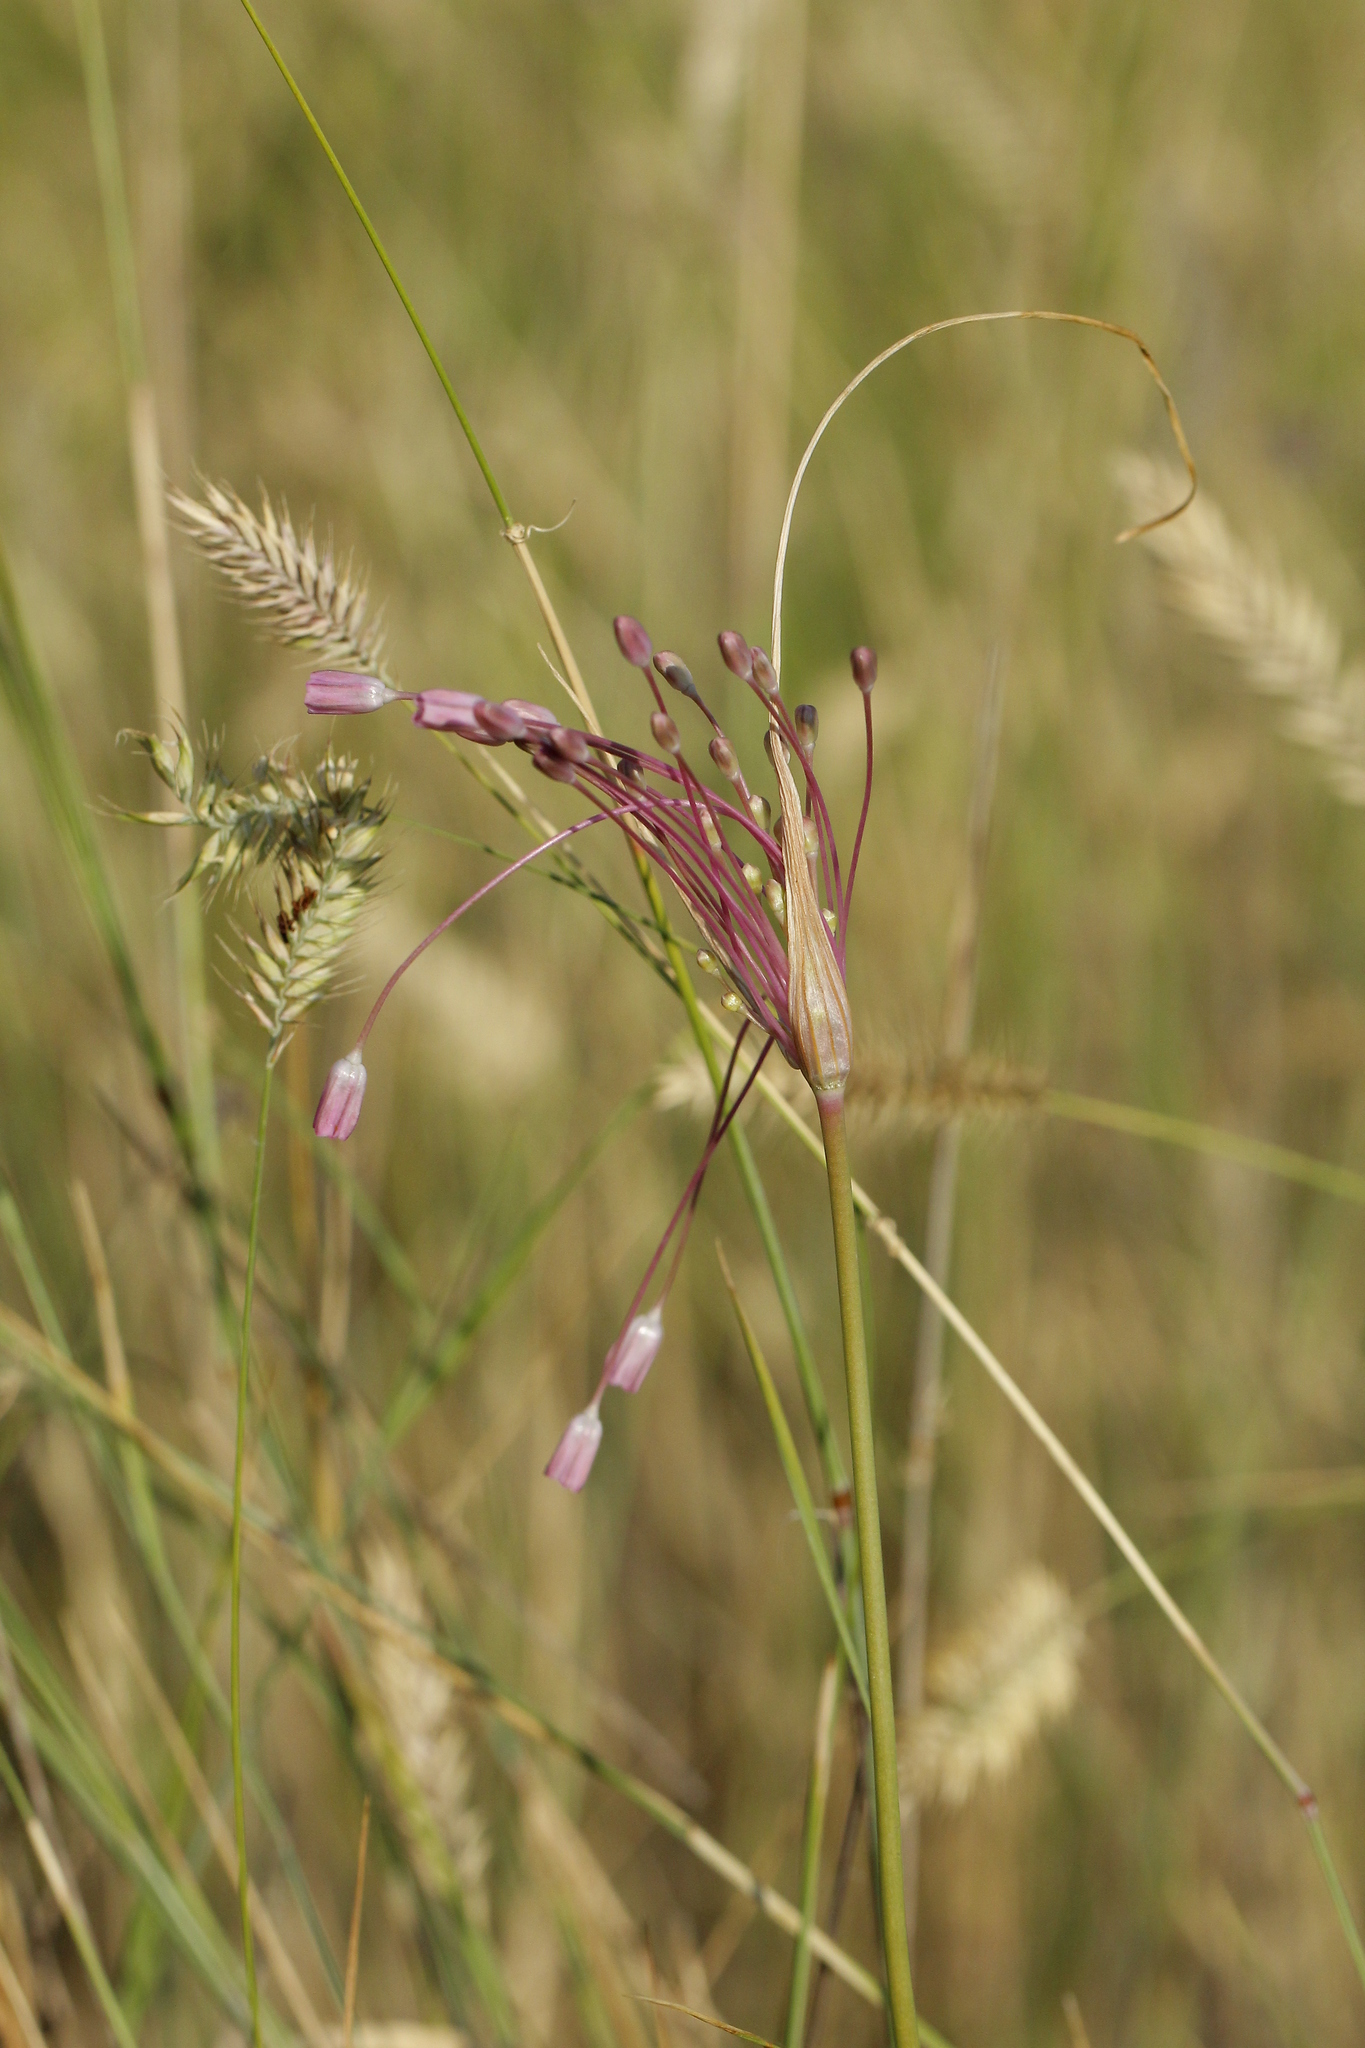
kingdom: Plantae
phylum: Tracheophyta
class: Liliopsida
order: Asparagales
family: Amaryllidaceae
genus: Allium
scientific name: Allium praescissum
